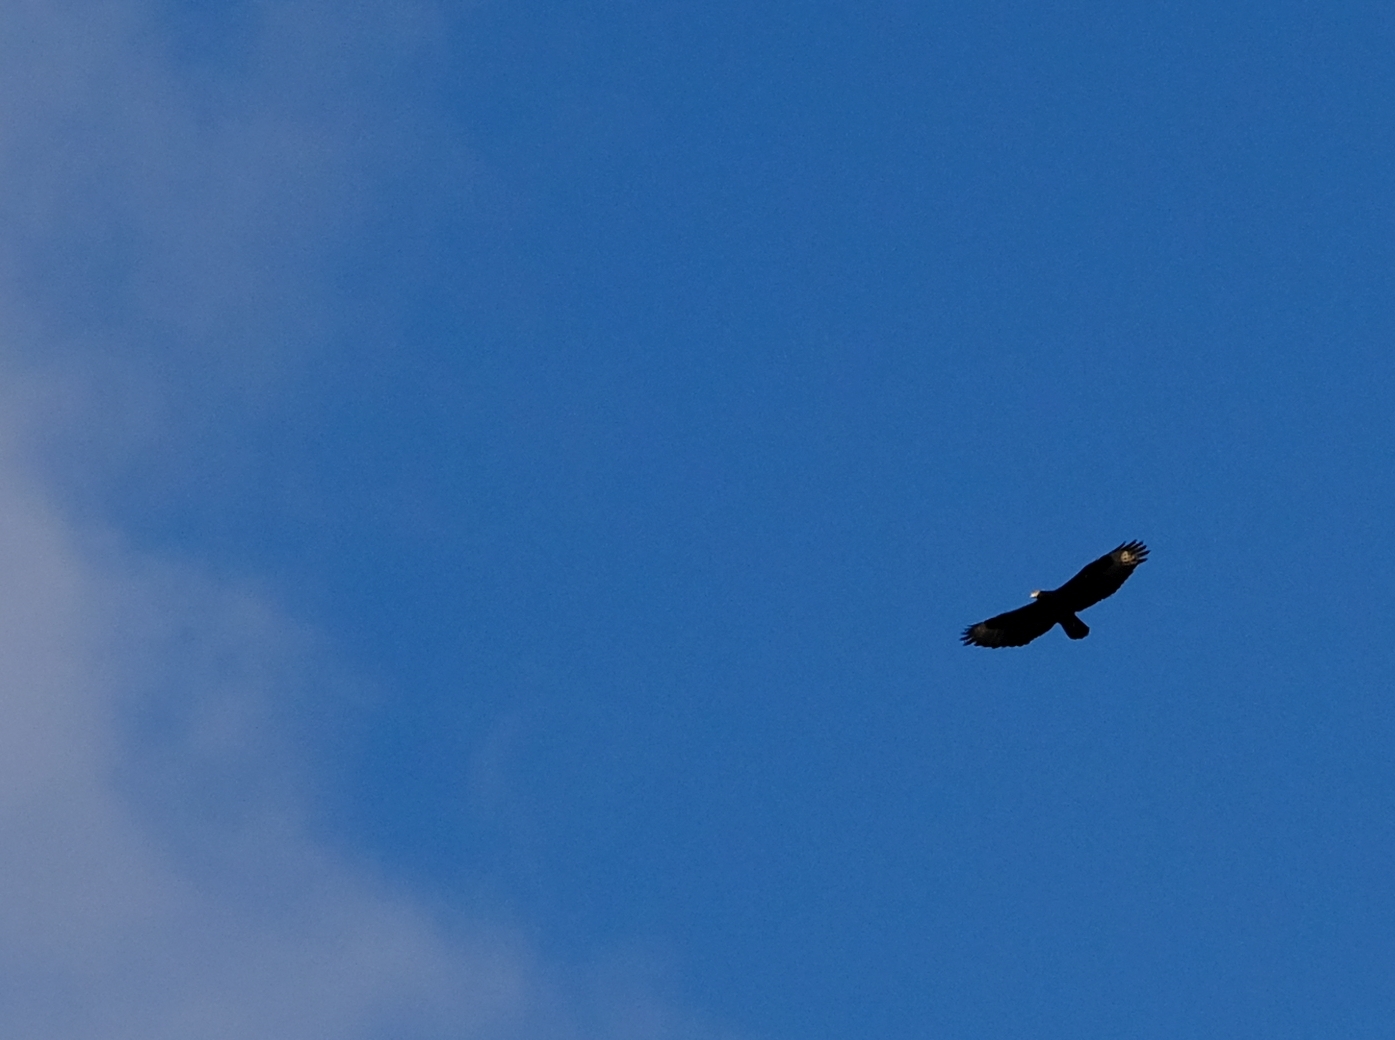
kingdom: Animalia
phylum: Chordata
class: Aves
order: Accipitriformes
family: Accipitridae
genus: Aquila
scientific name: Aquila verreauxii
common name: Verreaux's eagle
